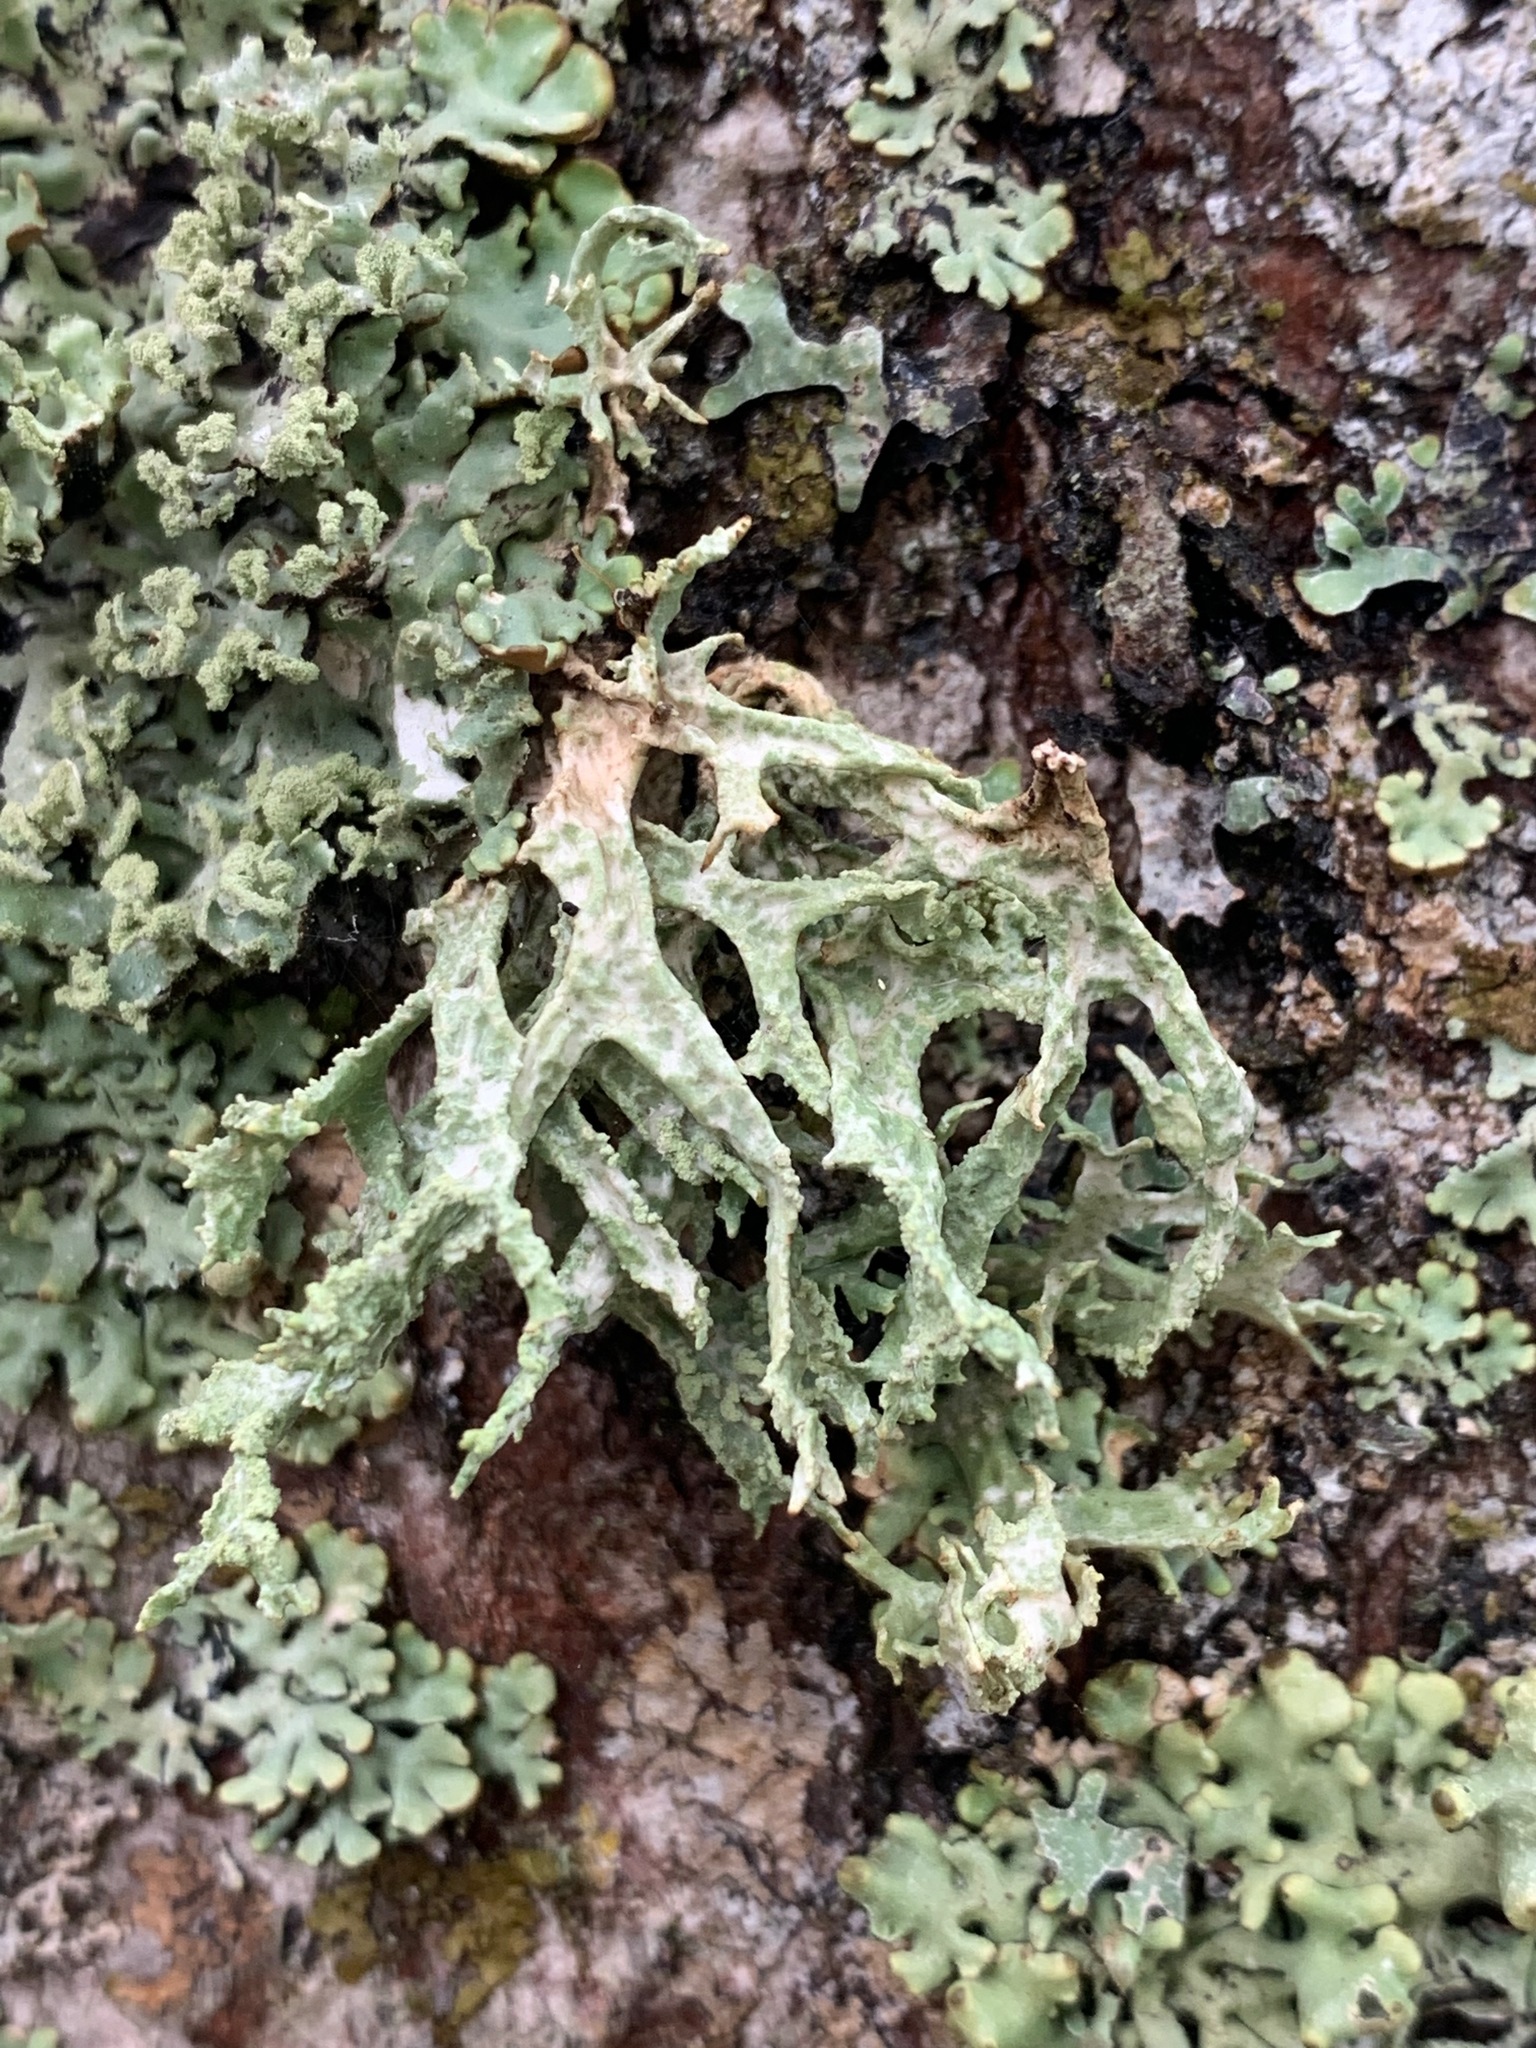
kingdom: Fungi
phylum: Ascomycota
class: Lecanoromycetes
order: Lecanorales
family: Parmeliaceae
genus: Evernia
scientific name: Evernia prunastri
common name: Oak moss
